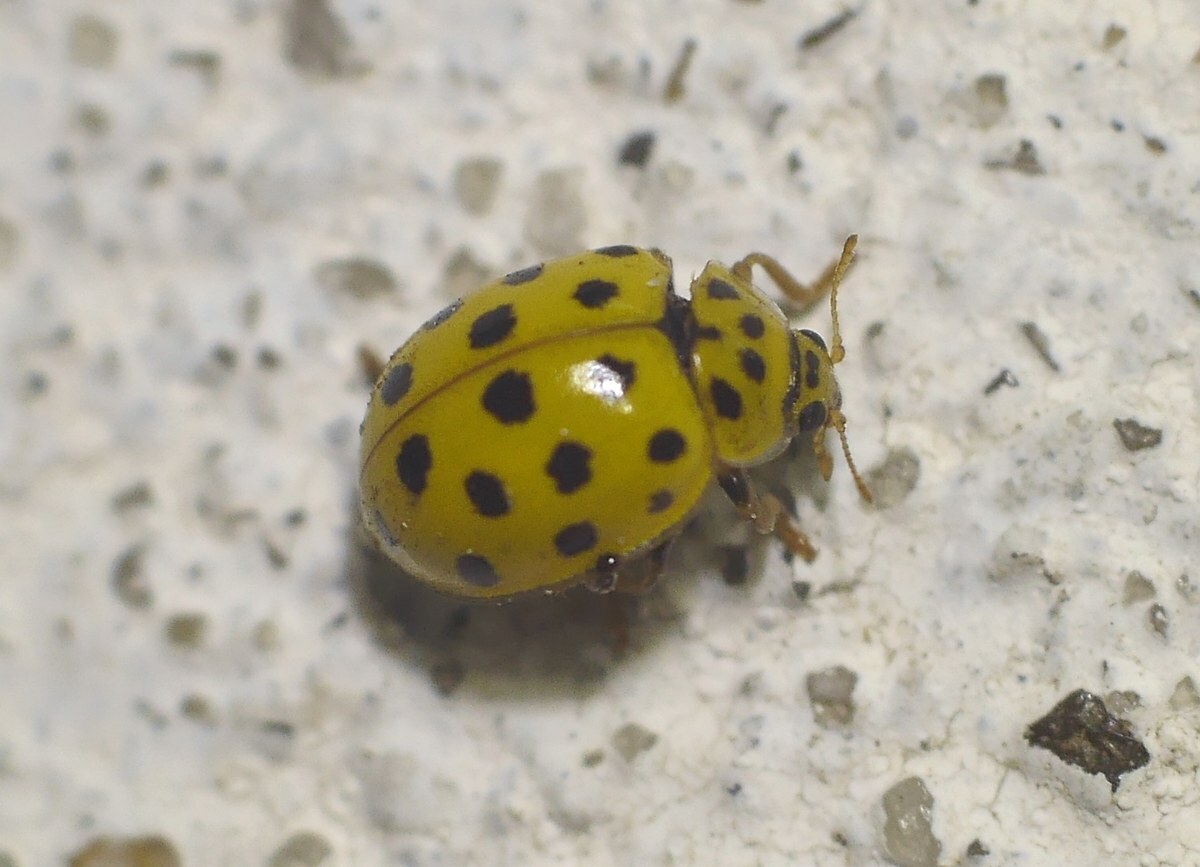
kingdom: Animalia
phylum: Arthropoda
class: Insecta
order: Coleoptera
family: Coccinellidae
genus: Psyllobora
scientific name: Psyllobora vigintiduopunctata
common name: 22-spot ladybird
